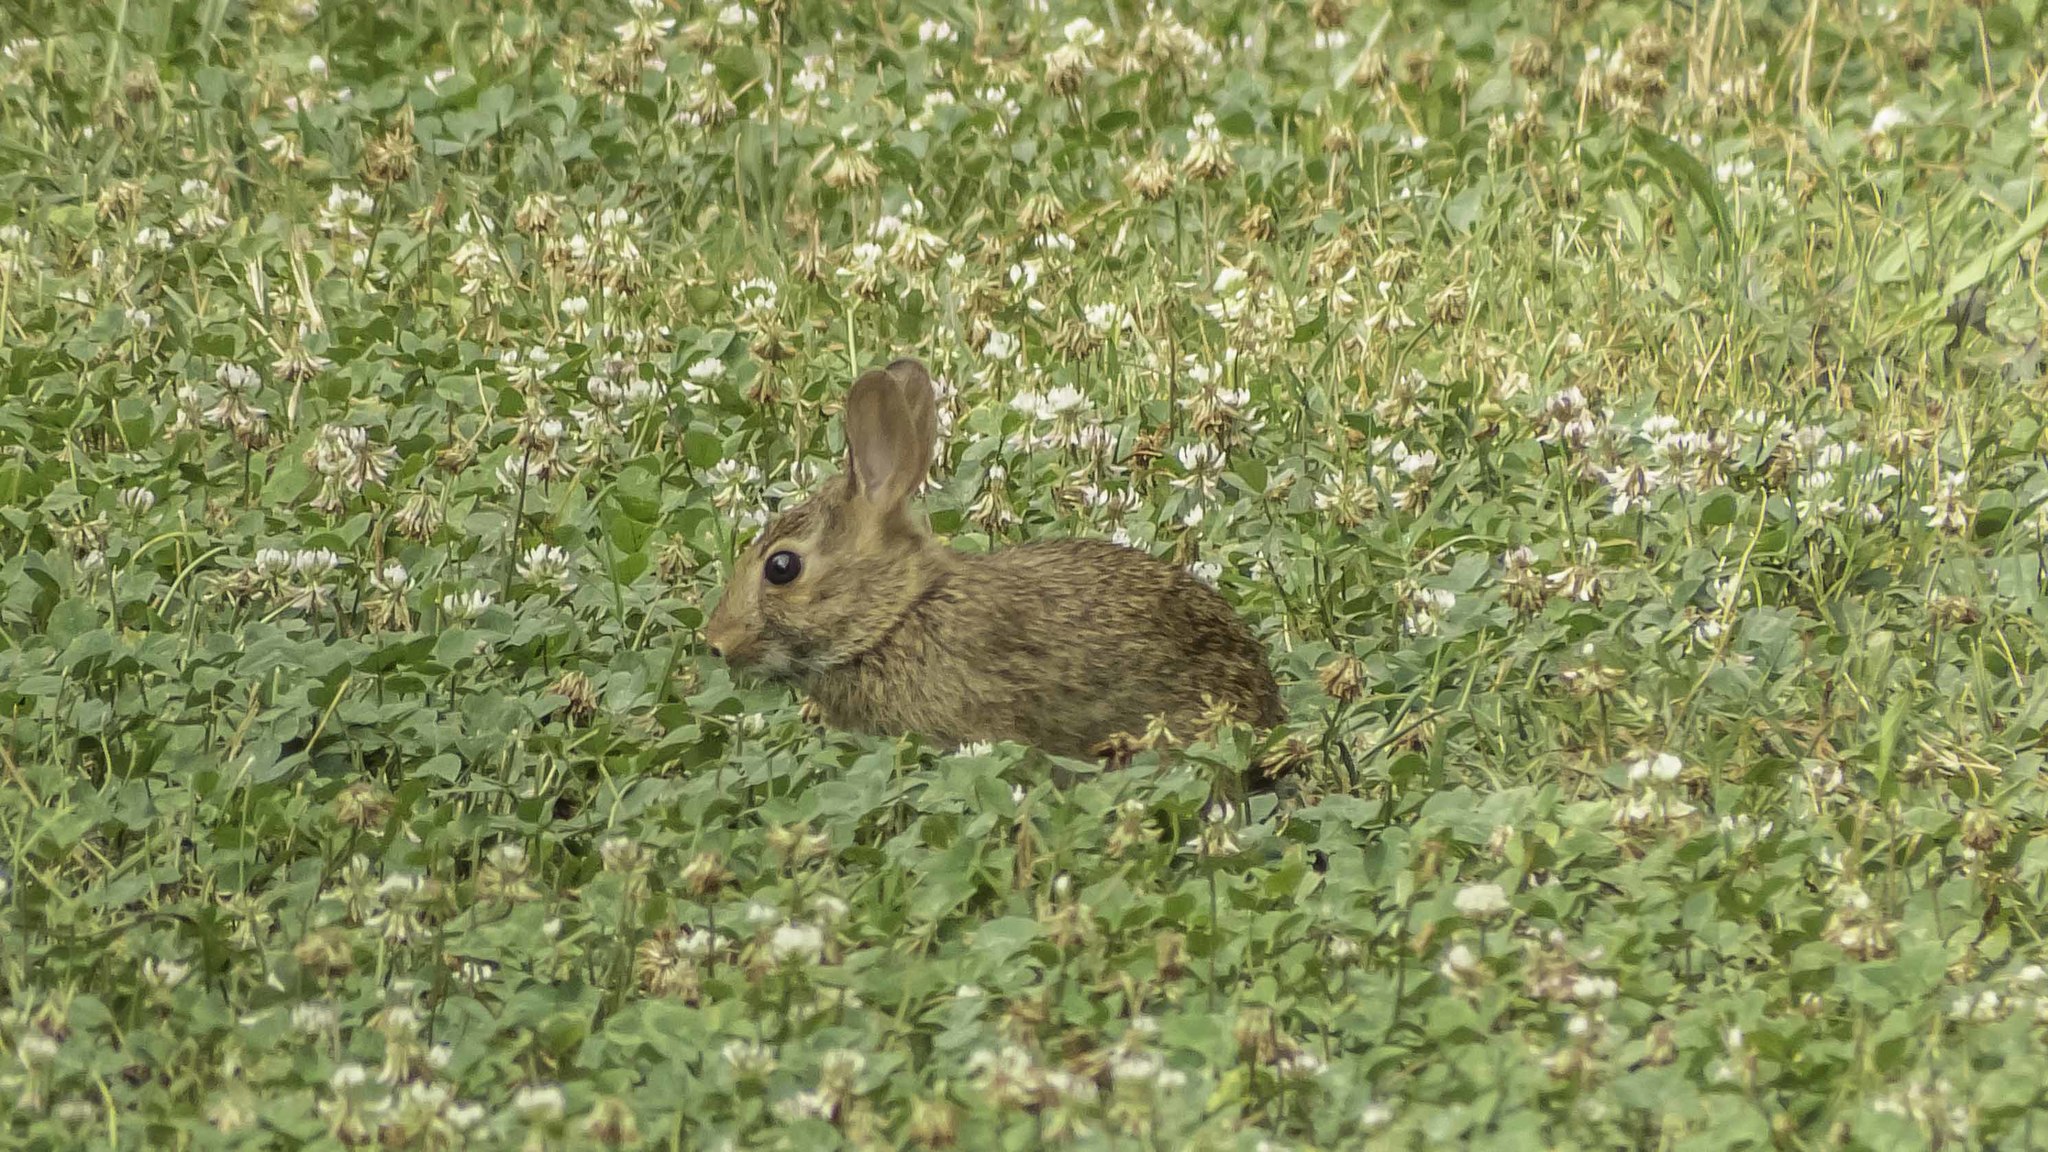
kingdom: Animalia
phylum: Chordata
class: Mammalia
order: Lagomorpha
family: Leporidae
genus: Sylvilagus
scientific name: Sylvilagus floridanus
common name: Eastern cottontail
